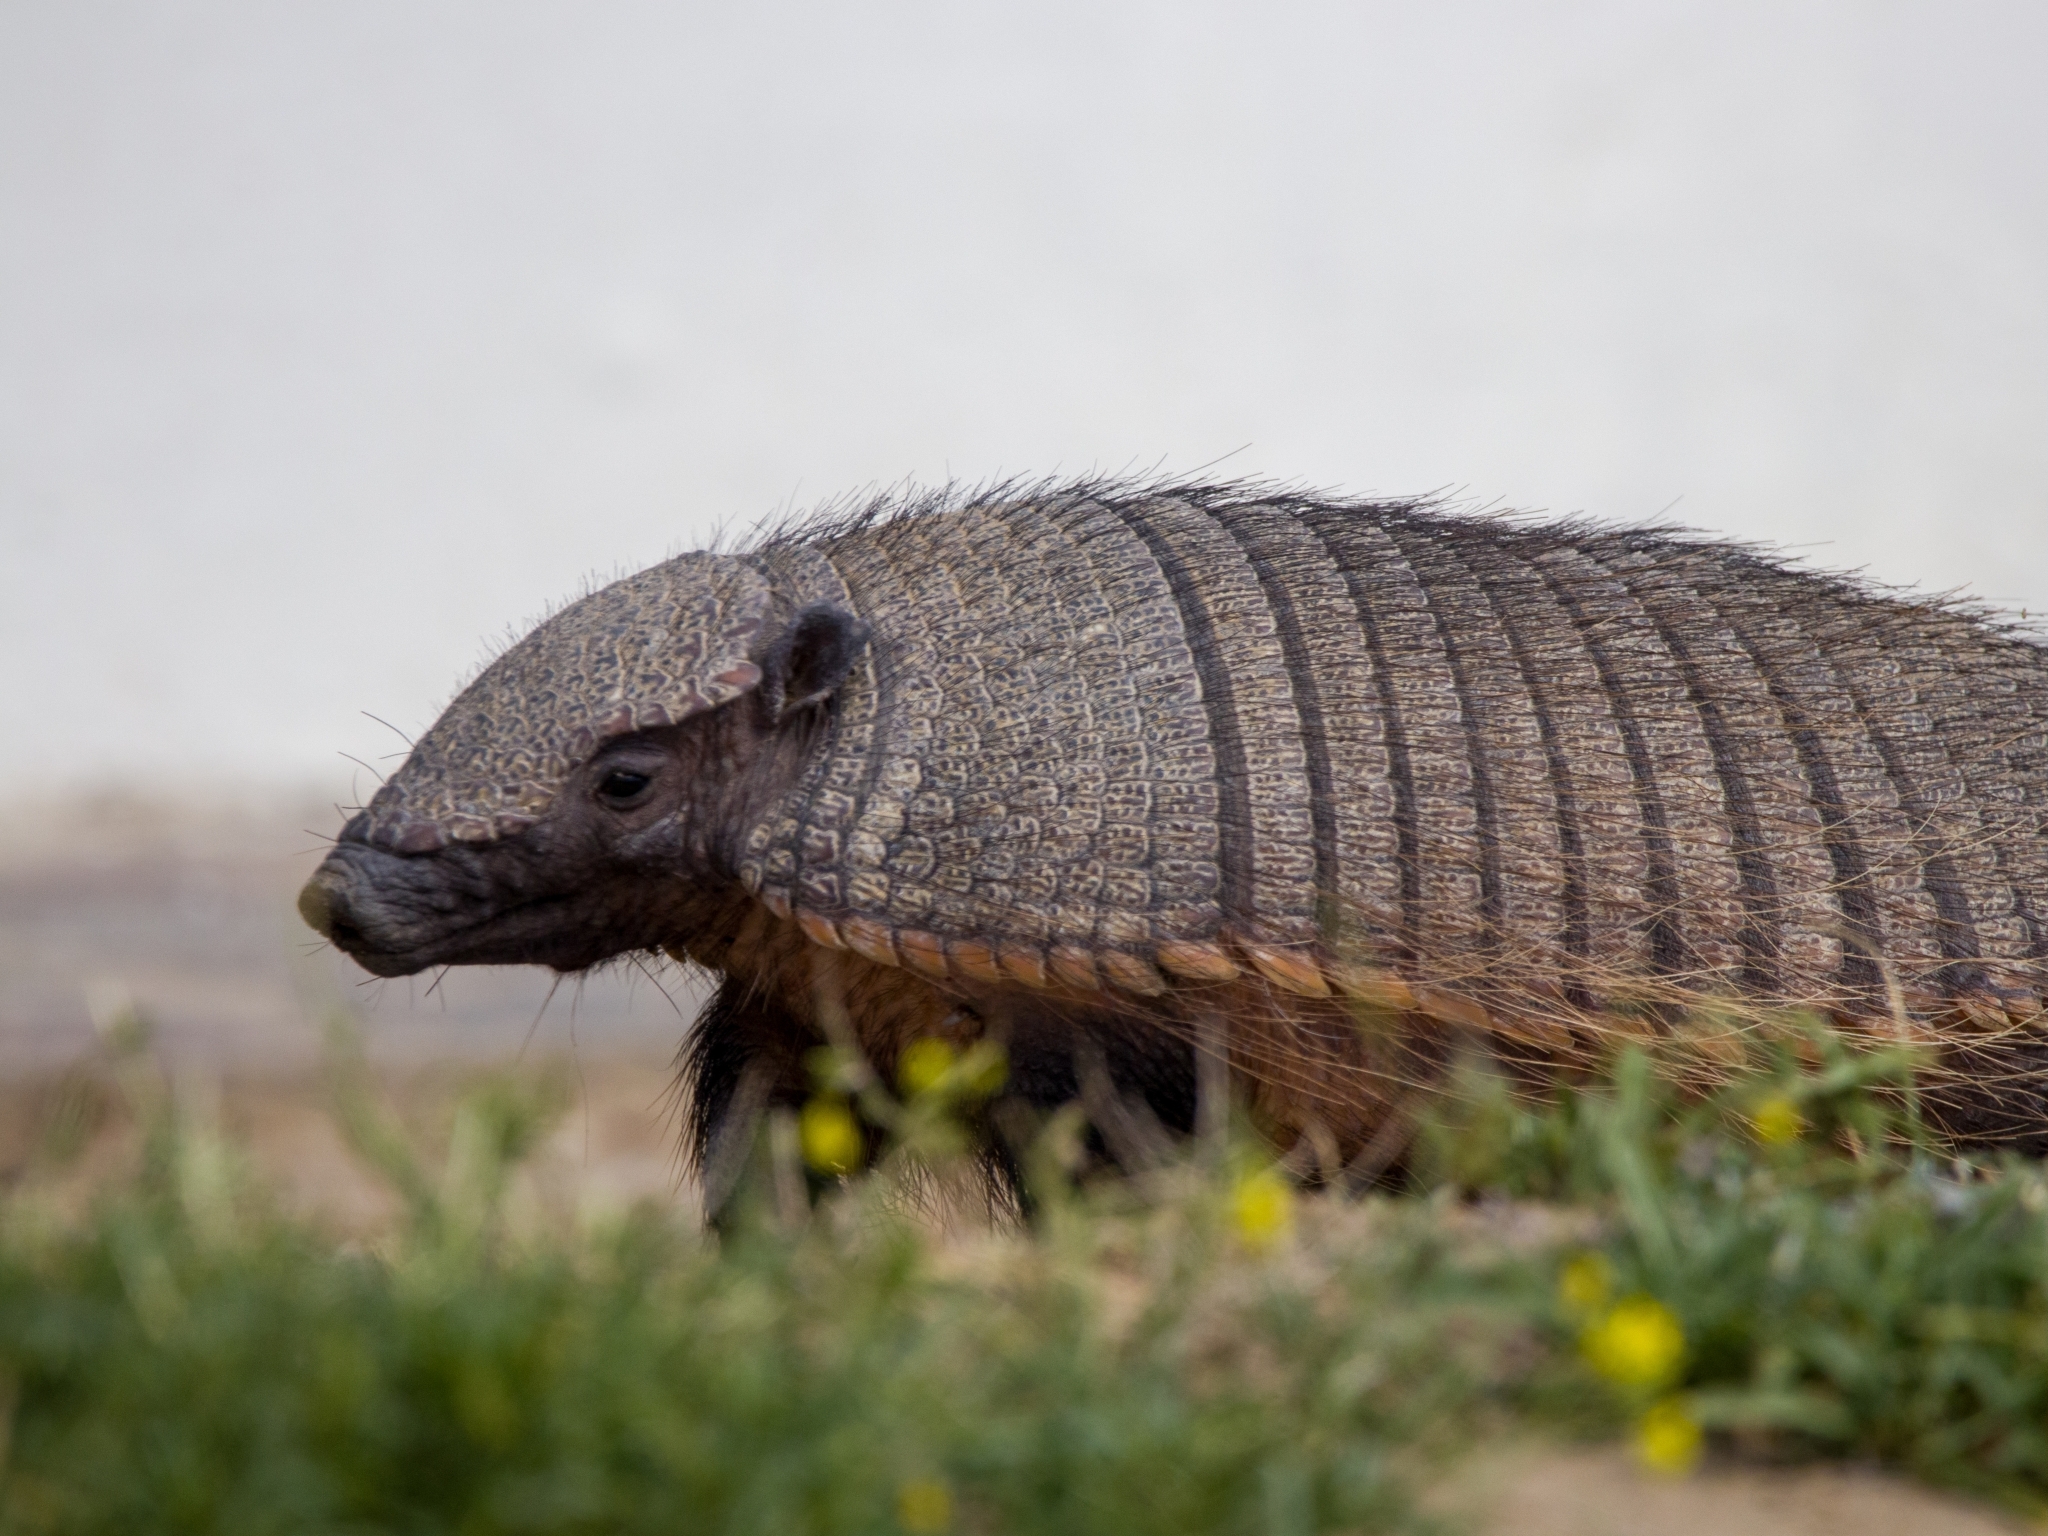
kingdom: Animalia
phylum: Chordata
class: Mammalia
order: Cingulata
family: Dasypodidae
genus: Chaetophractus
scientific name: Chaetophractus villosus
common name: Big hairy armadillo
